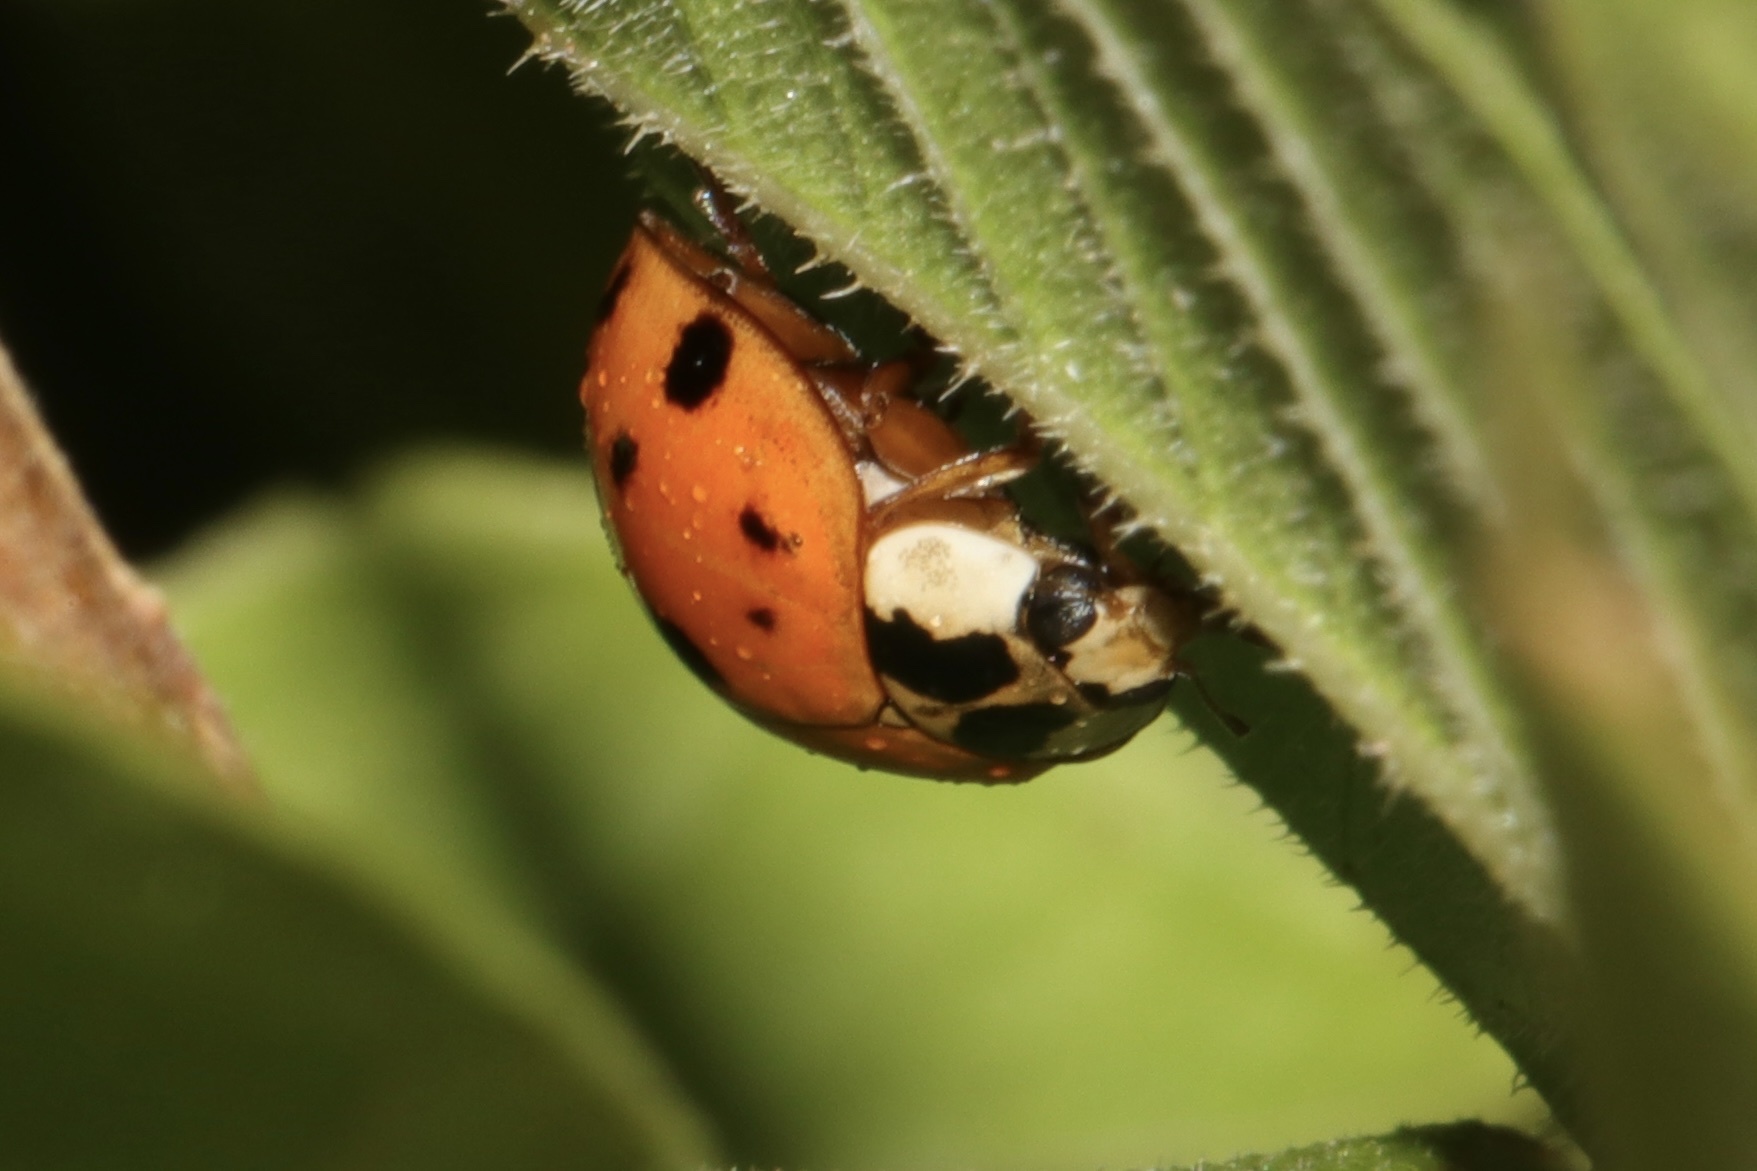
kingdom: Animalia
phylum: Arthropoda
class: Insecta
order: Coleoptera
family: Coccinellidae
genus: Harmonia
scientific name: Harmonia axyridis
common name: Harlequin ladybird
